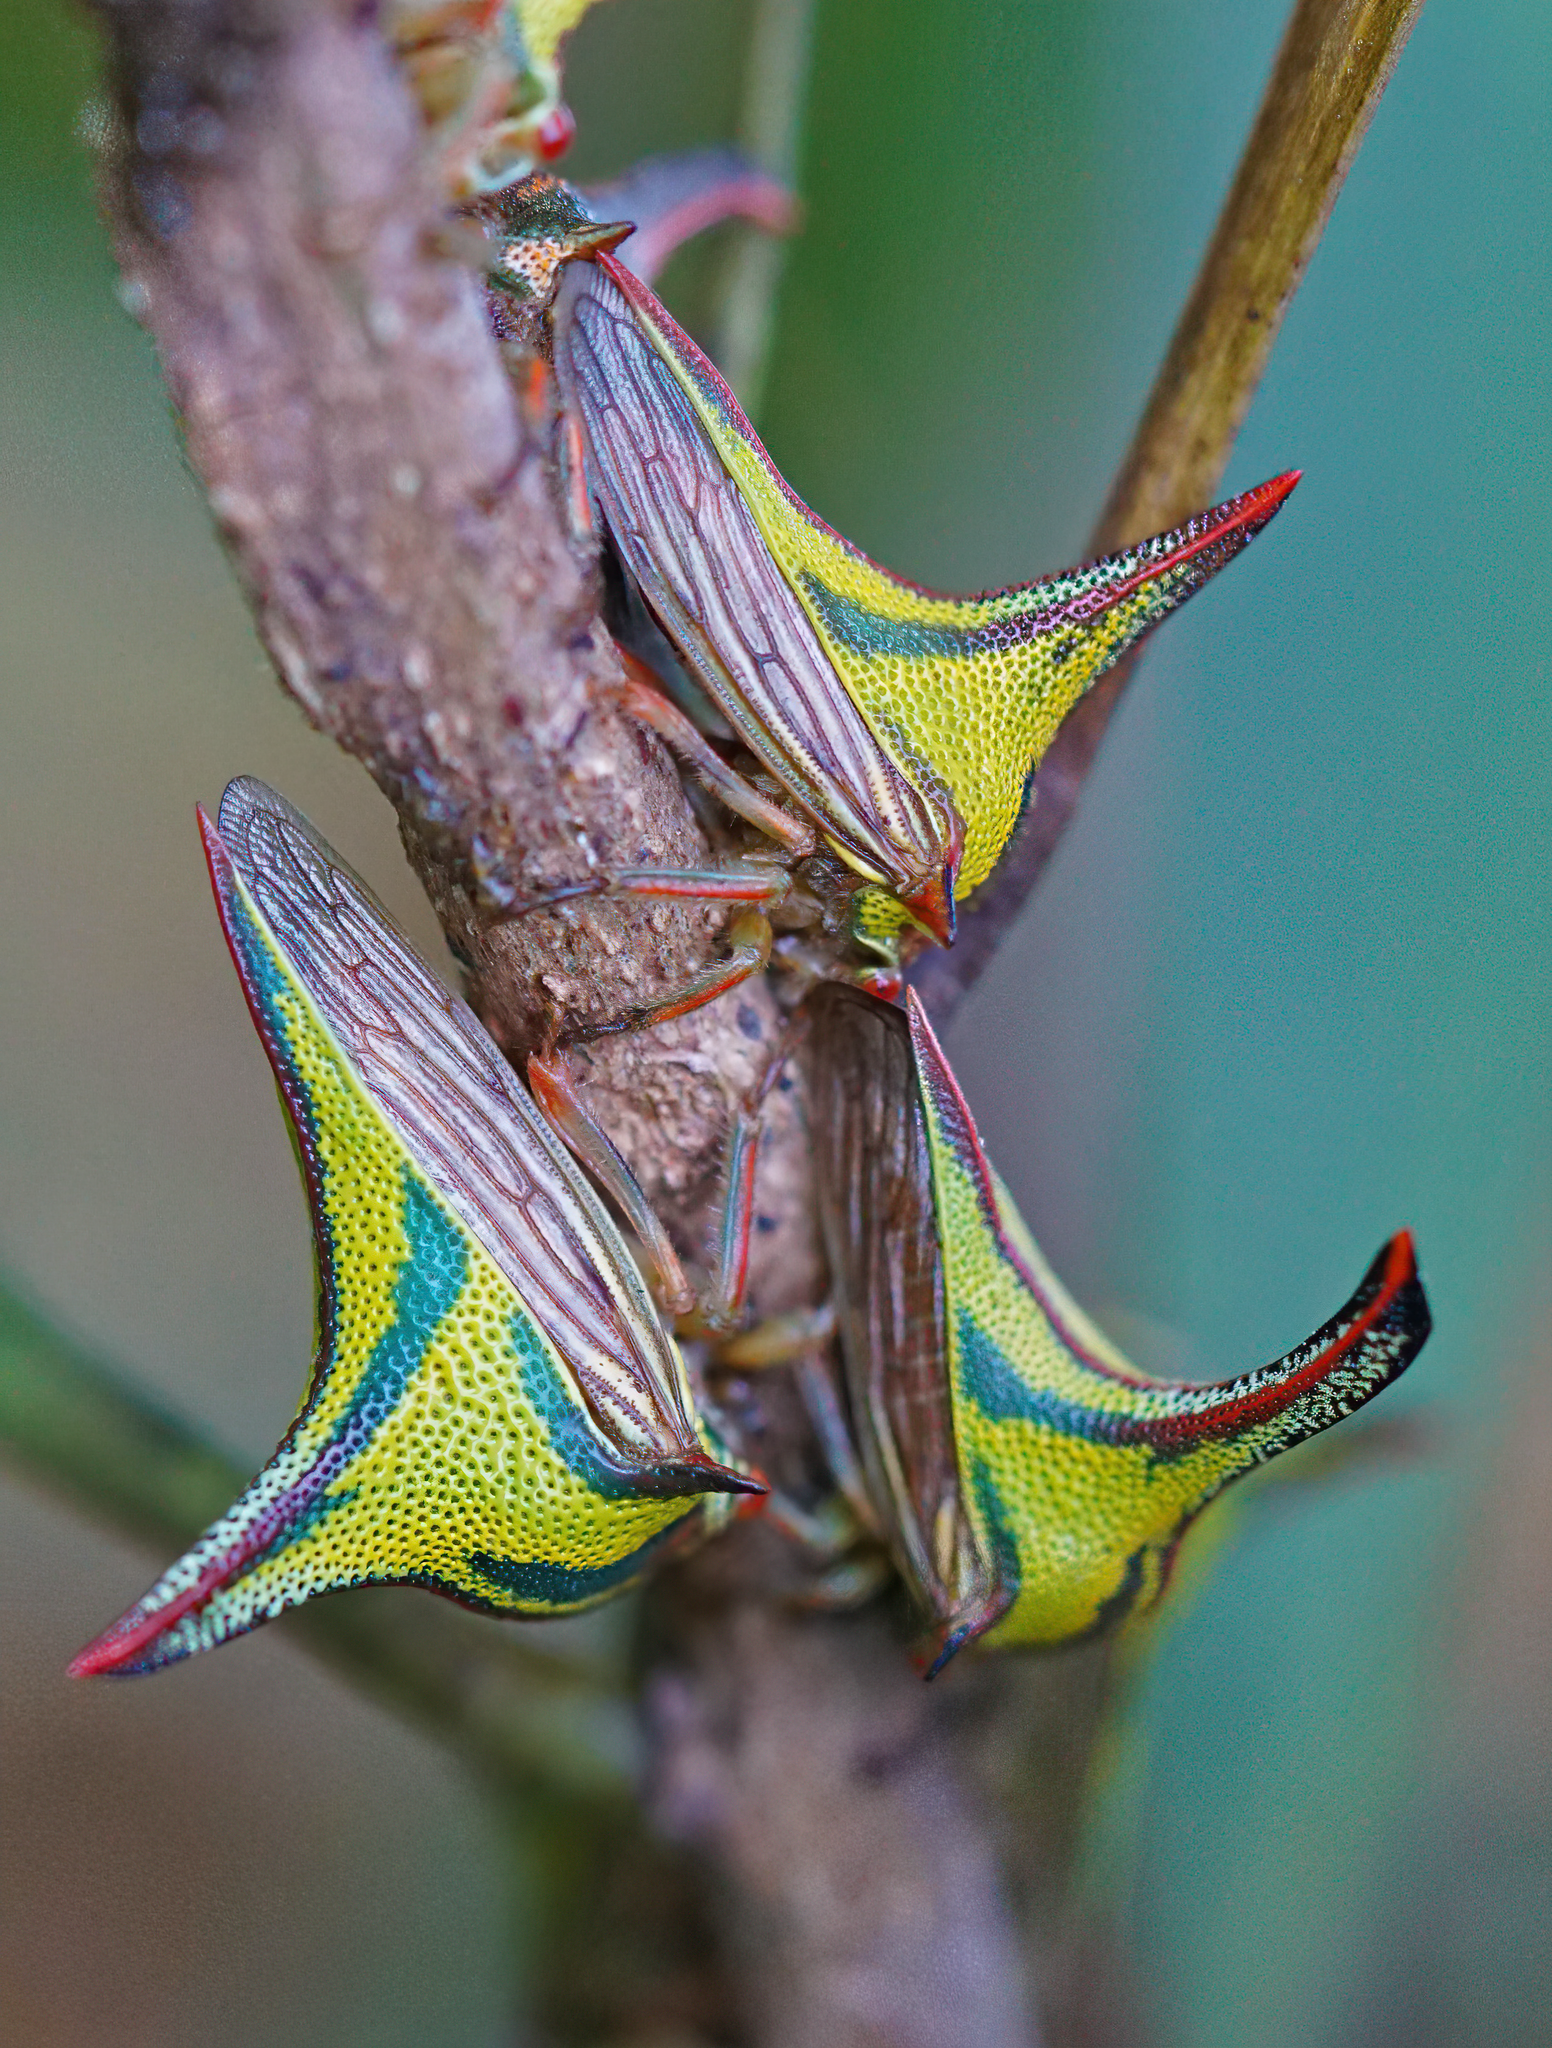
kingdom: Animalia
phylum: Arthropoda
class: Insecta
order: Hemiptera
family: Membracidae
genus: Umbonia
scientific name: Umbonia crassicornis
